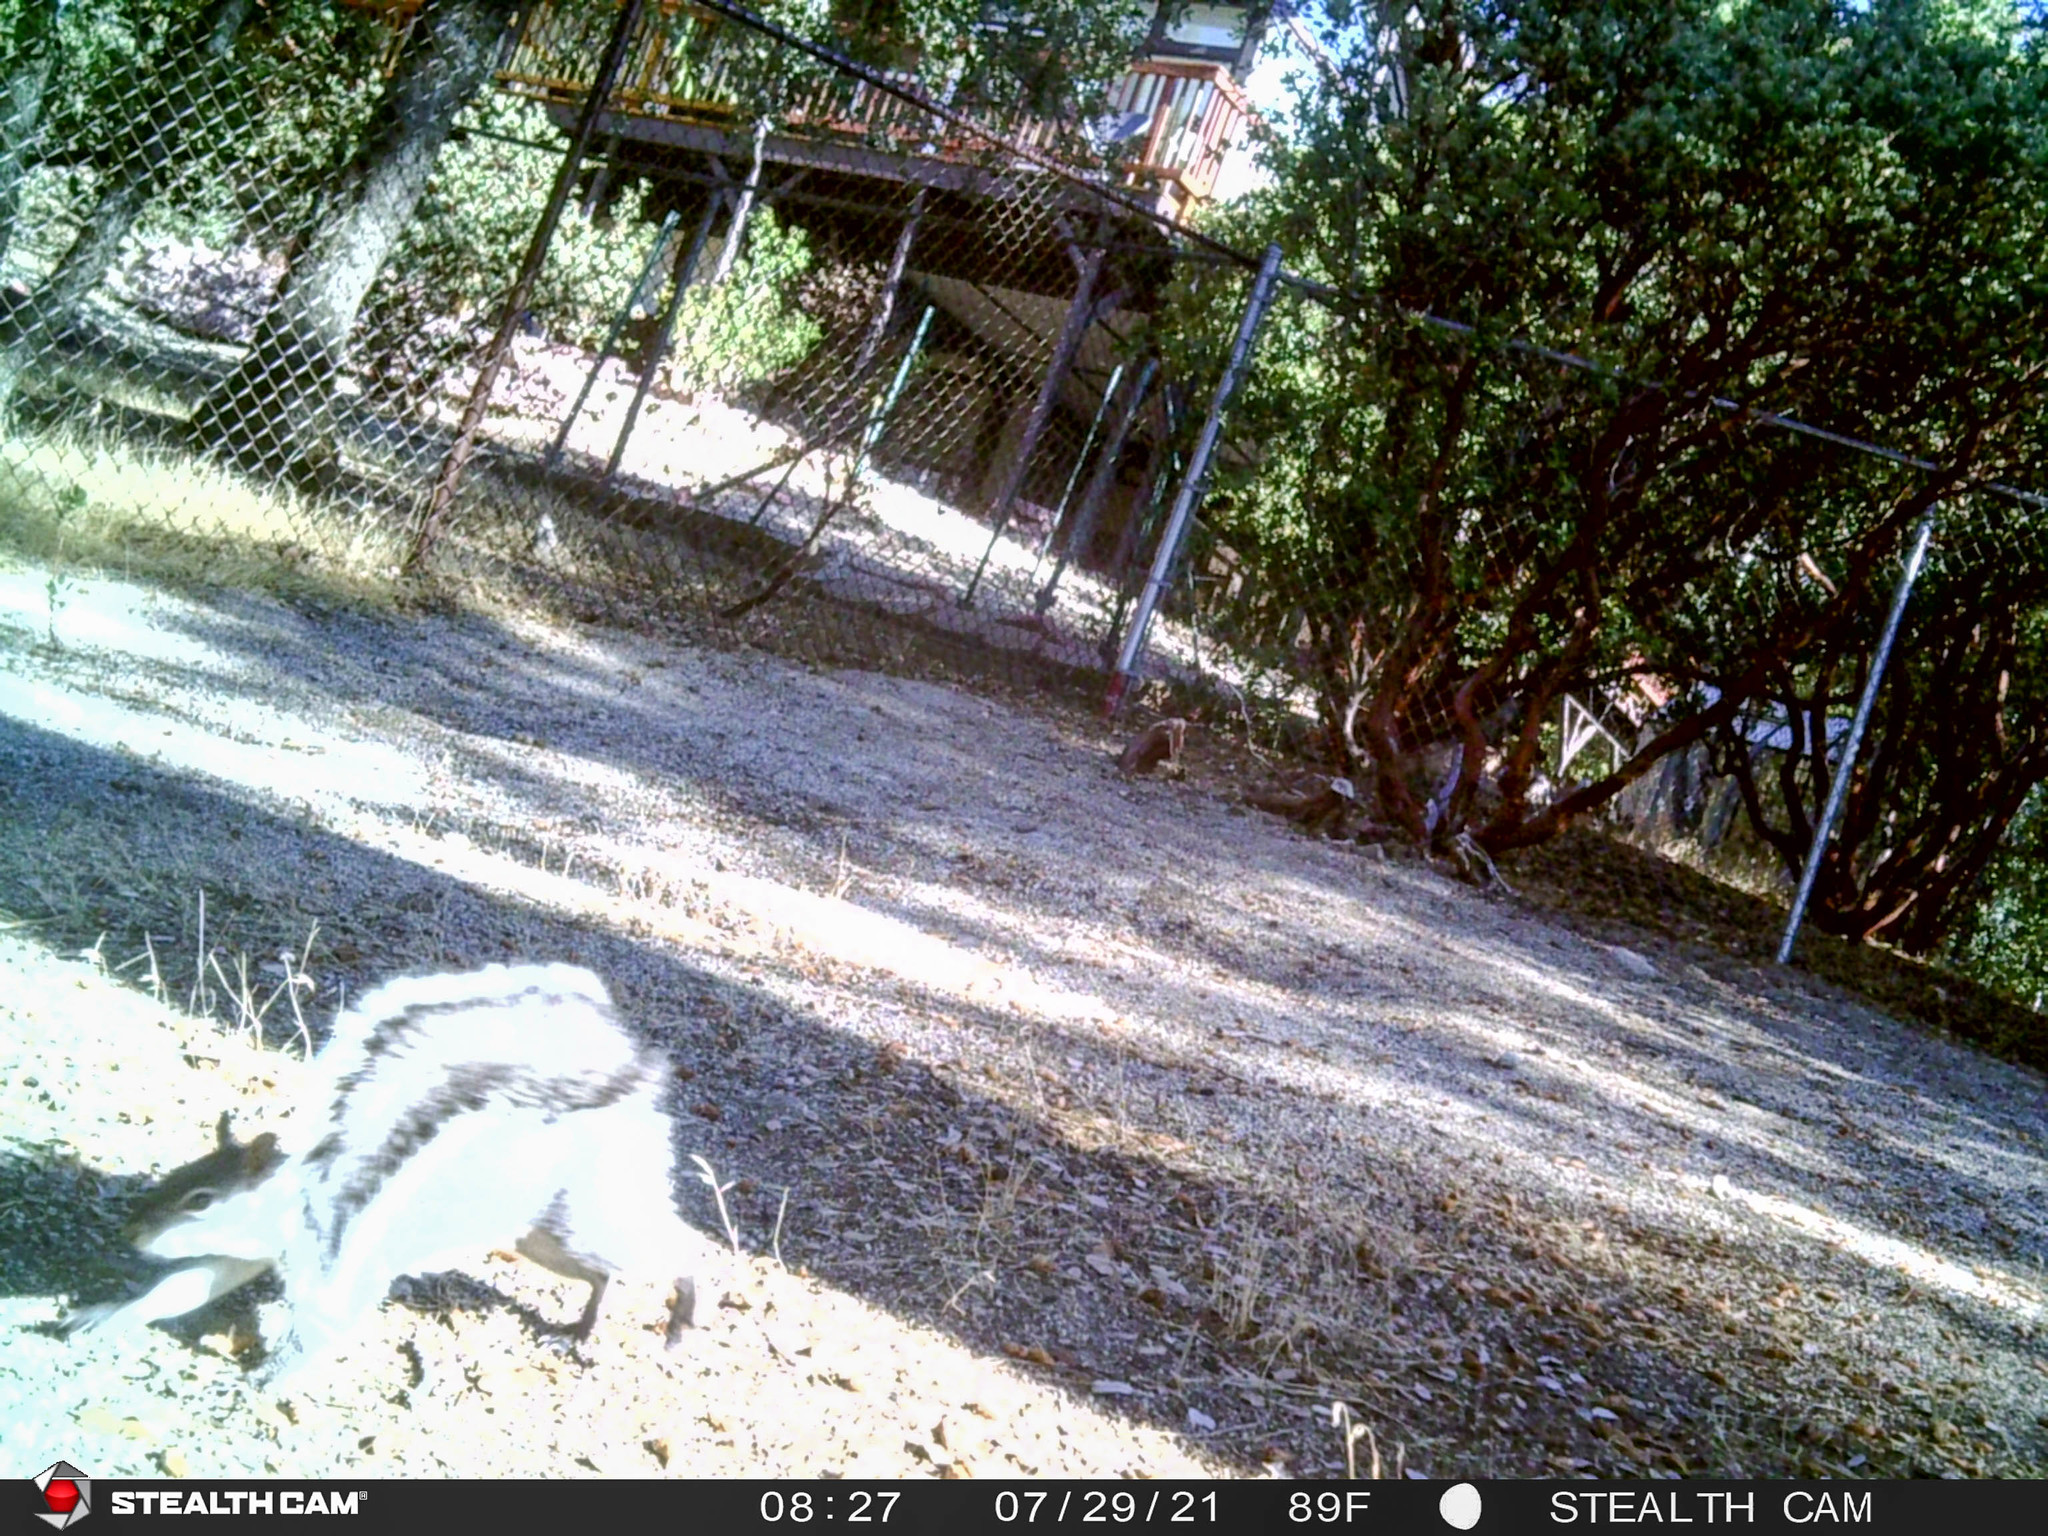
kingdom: Animalia
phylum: Chordata
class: Mammalia
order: Rodentia
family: Sciuridae
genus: Sciurus
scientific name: Sciurus griseus
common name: Western gray squirrel
